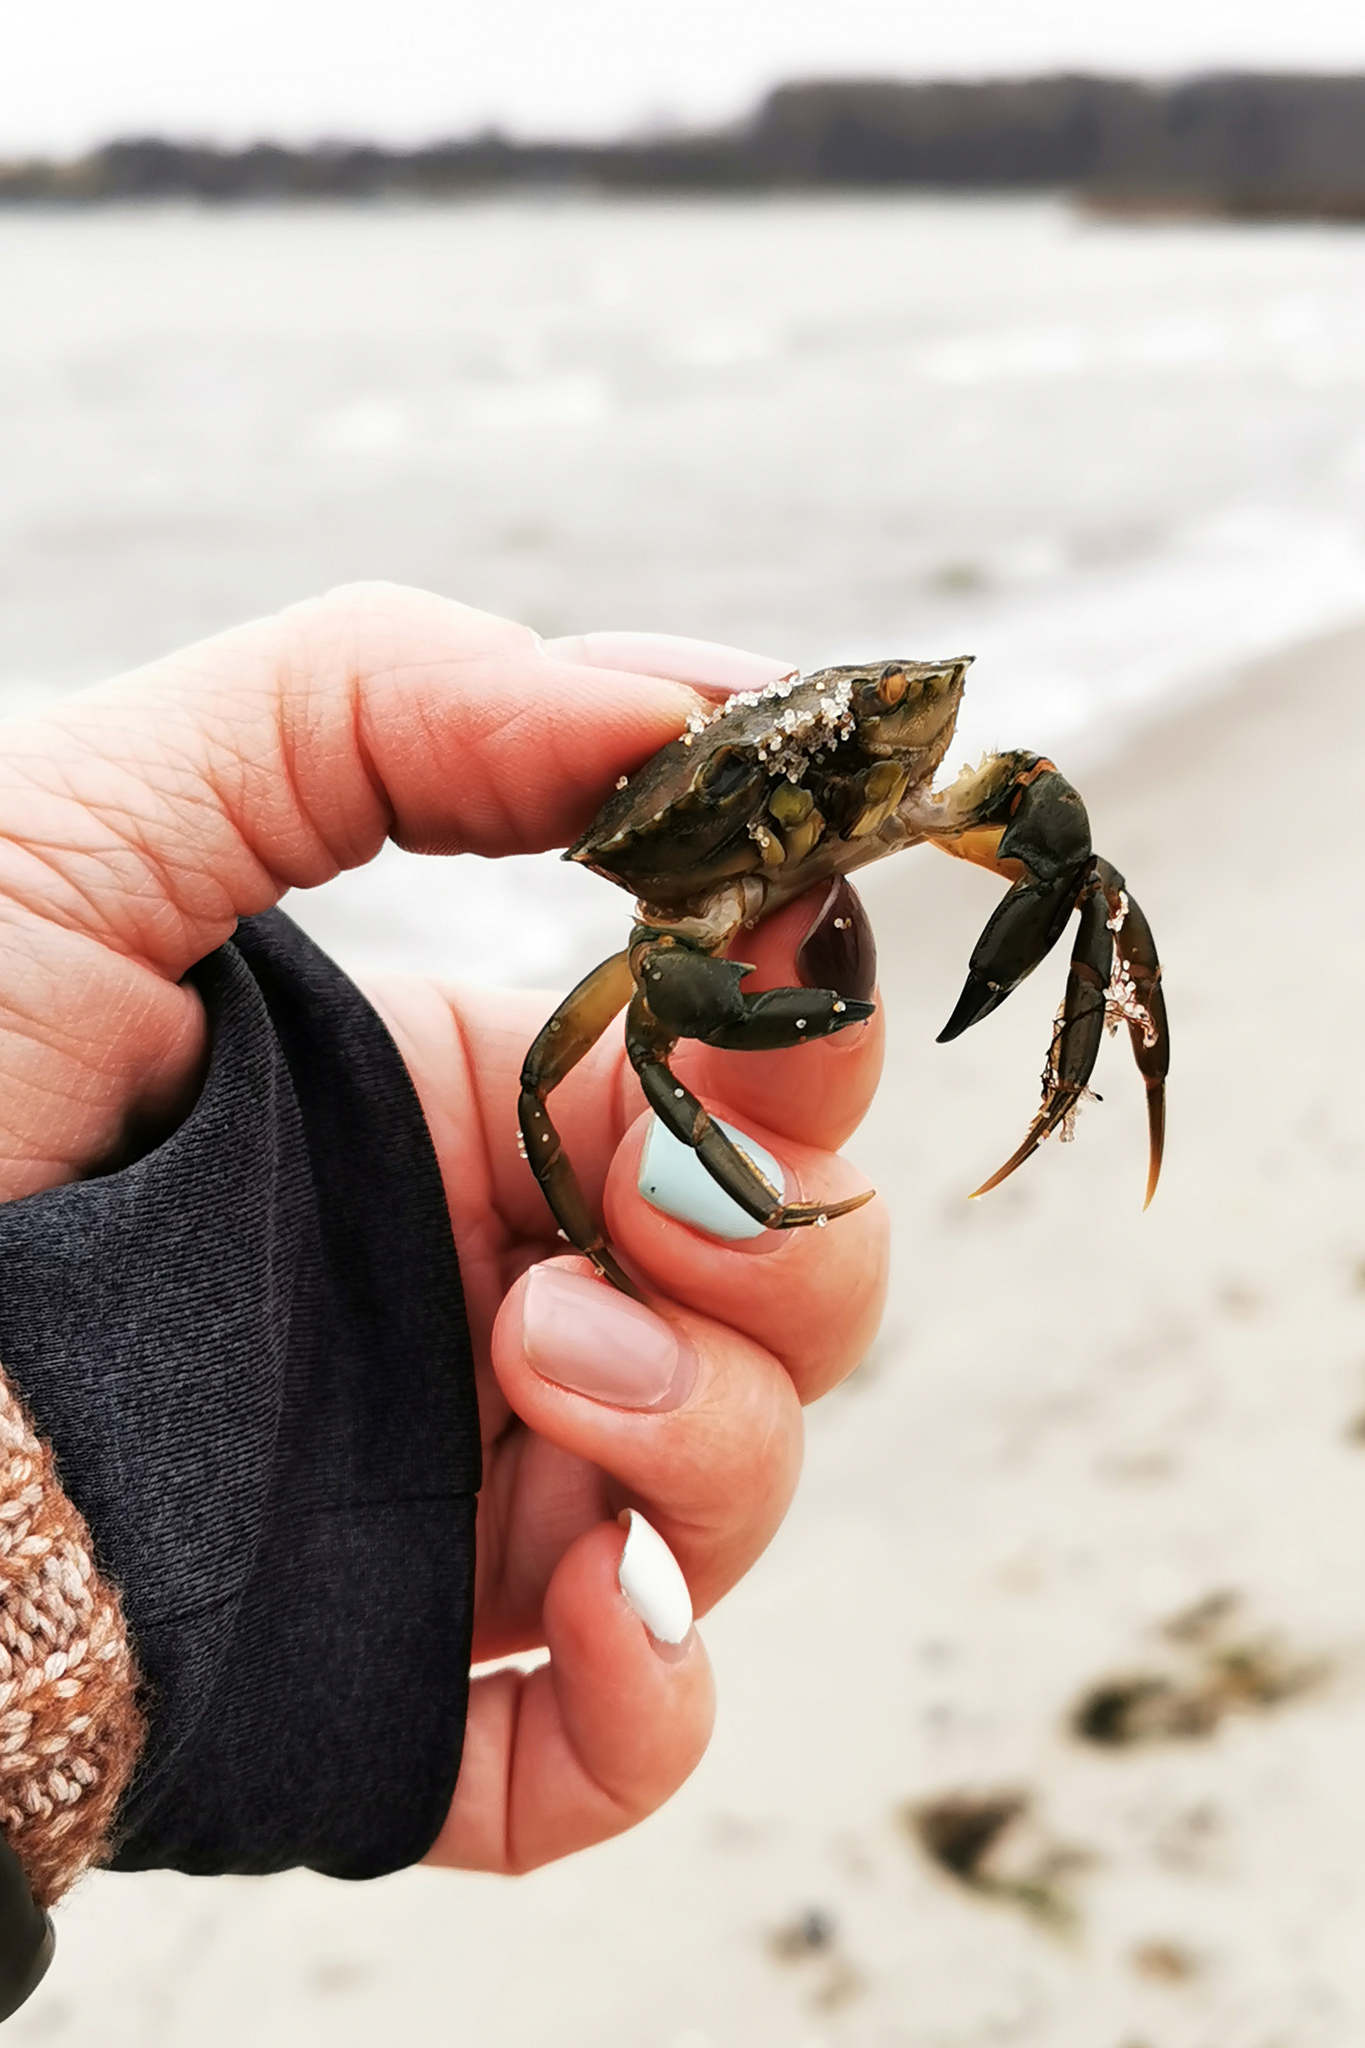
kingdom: Animalia
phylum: Arthropoda
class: Malacostraca
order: Decapoda
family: Carcinidae
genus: Carcinus
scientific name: Carcinus maenas
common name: European green crab
